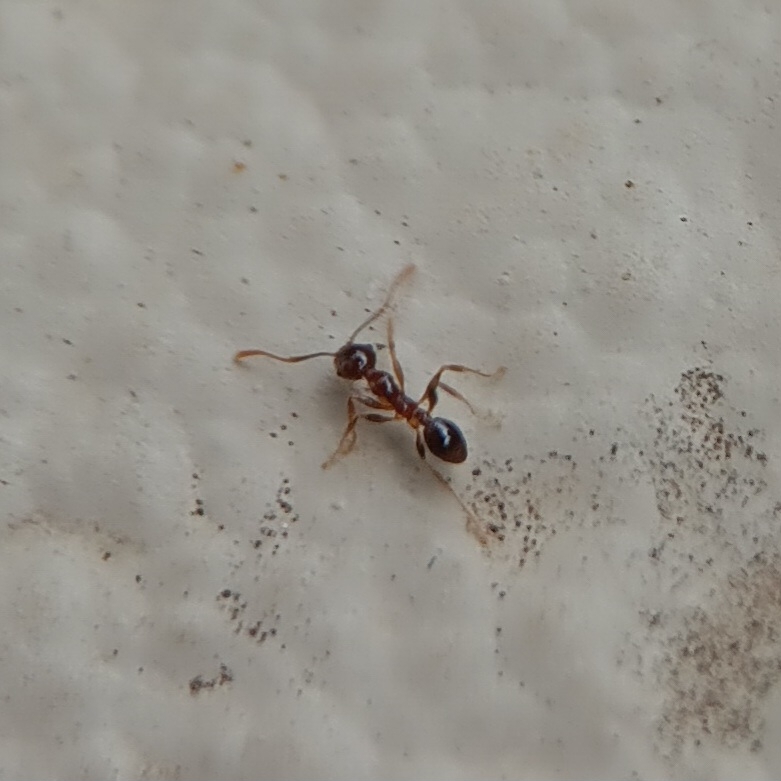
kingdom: Animalia
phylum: Arthropoda
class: Insecta
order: Hymenoptera
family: Formicidae
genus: Pheidole
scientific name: Pheidole megacephala
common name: Bigheaded ant
